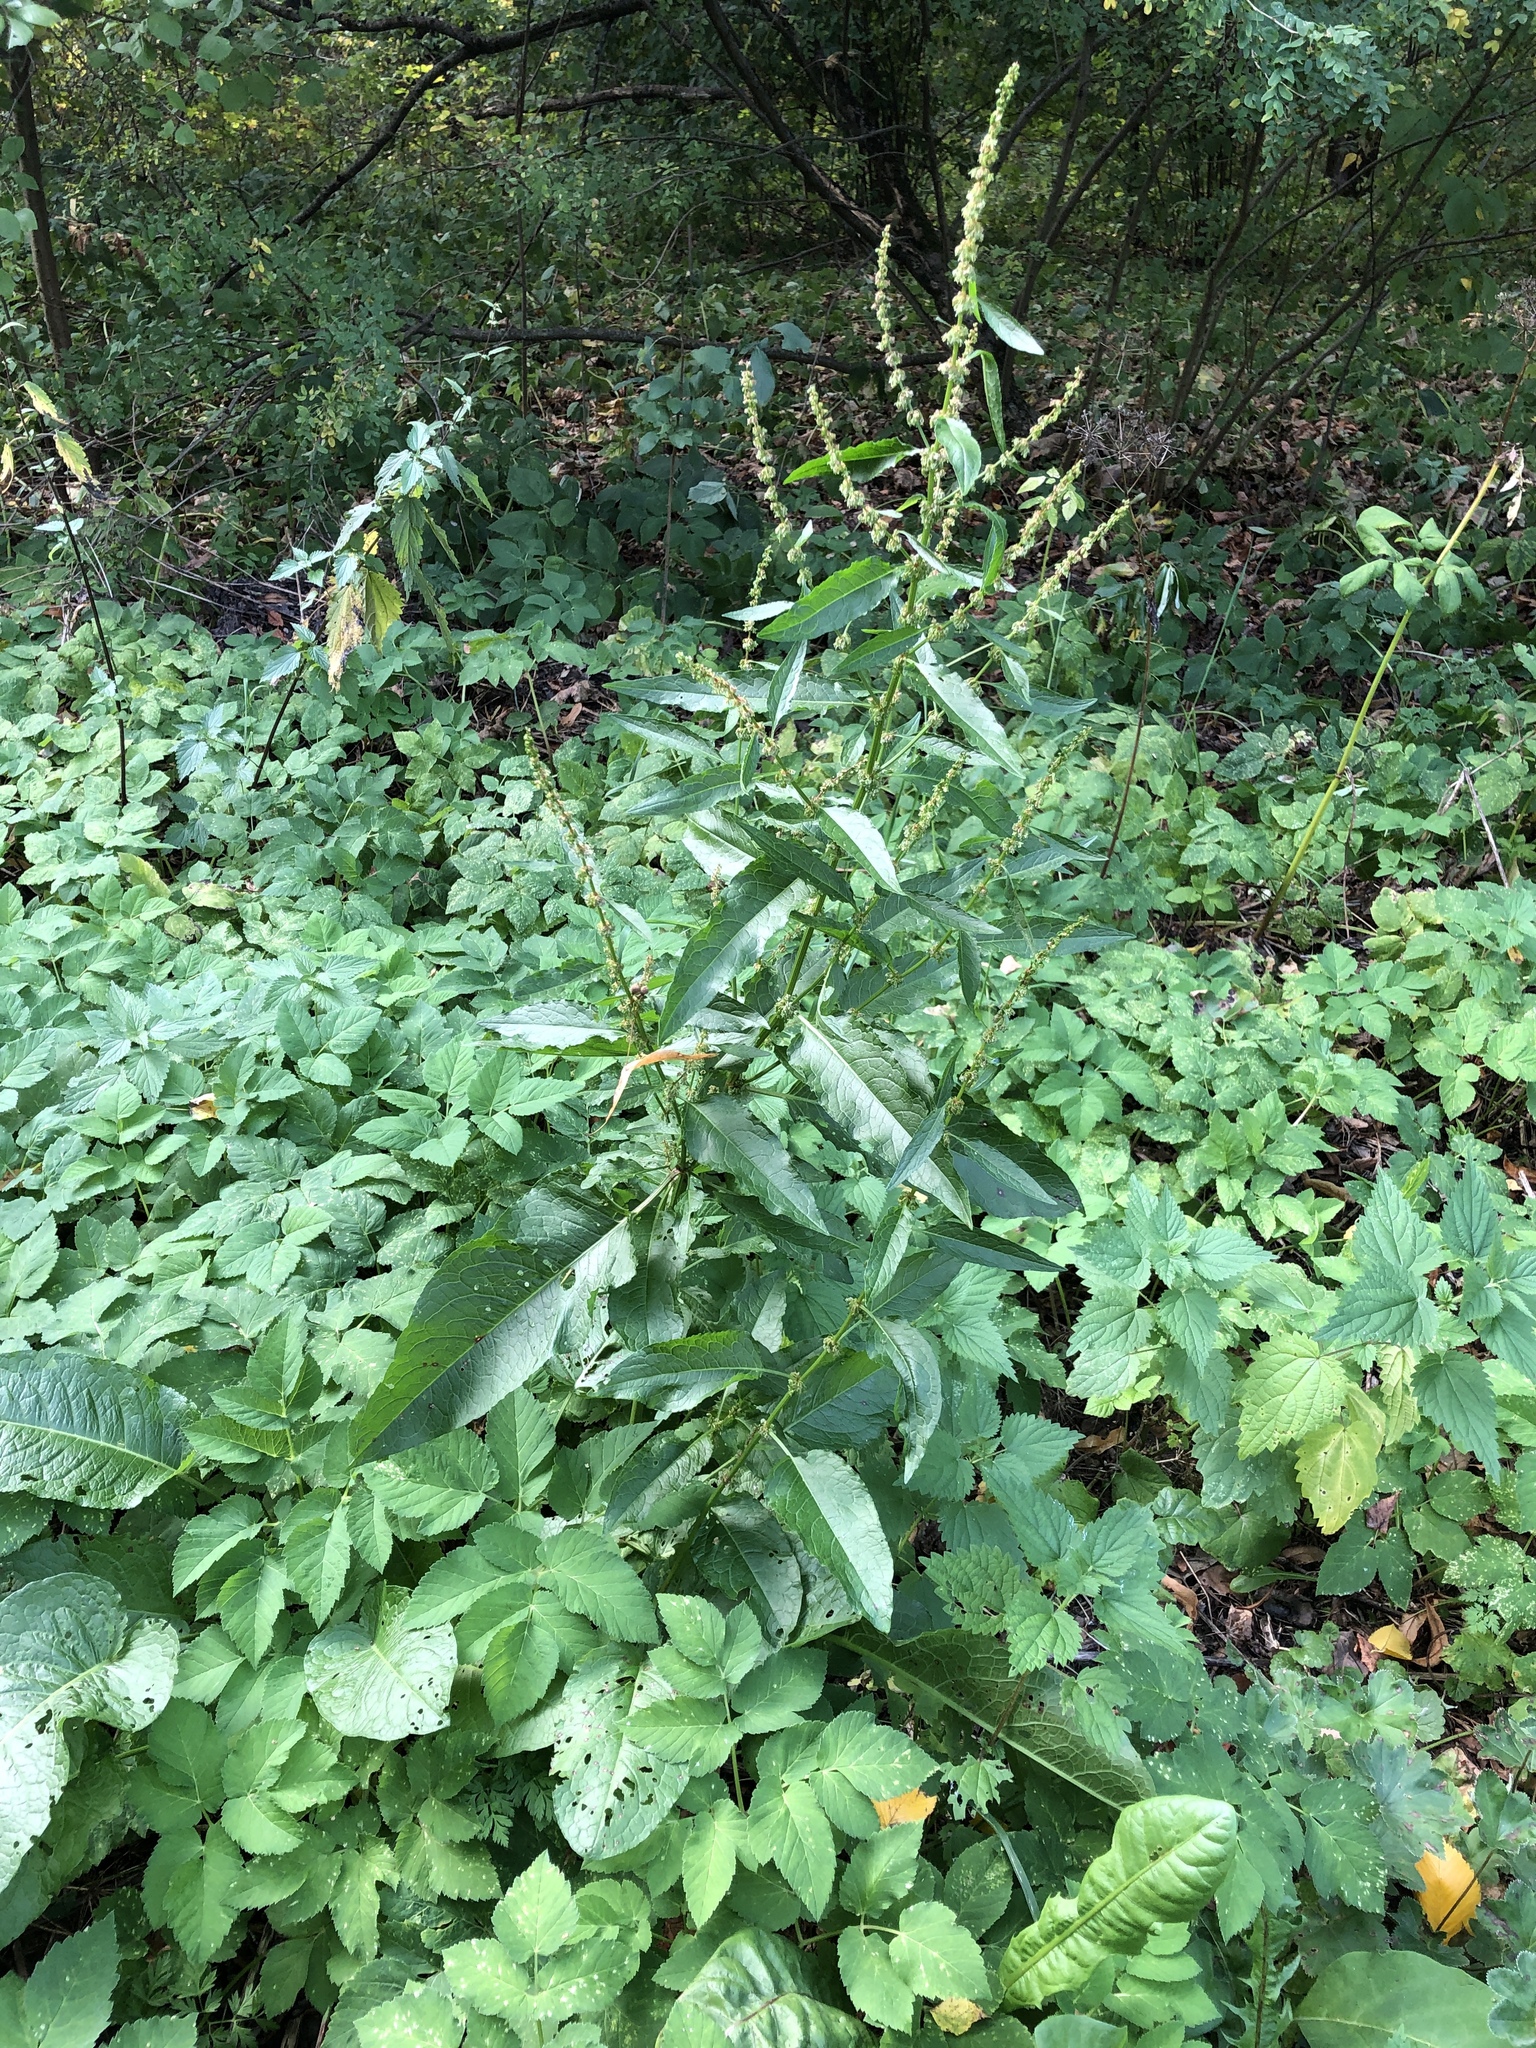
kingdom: Plantae
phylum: Tracheophyta
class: Magnoliopsida
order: Caryophyllales
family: Polygonaceae
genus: Rumex
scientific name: Rumex obtusifolius
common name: Bitter dock
